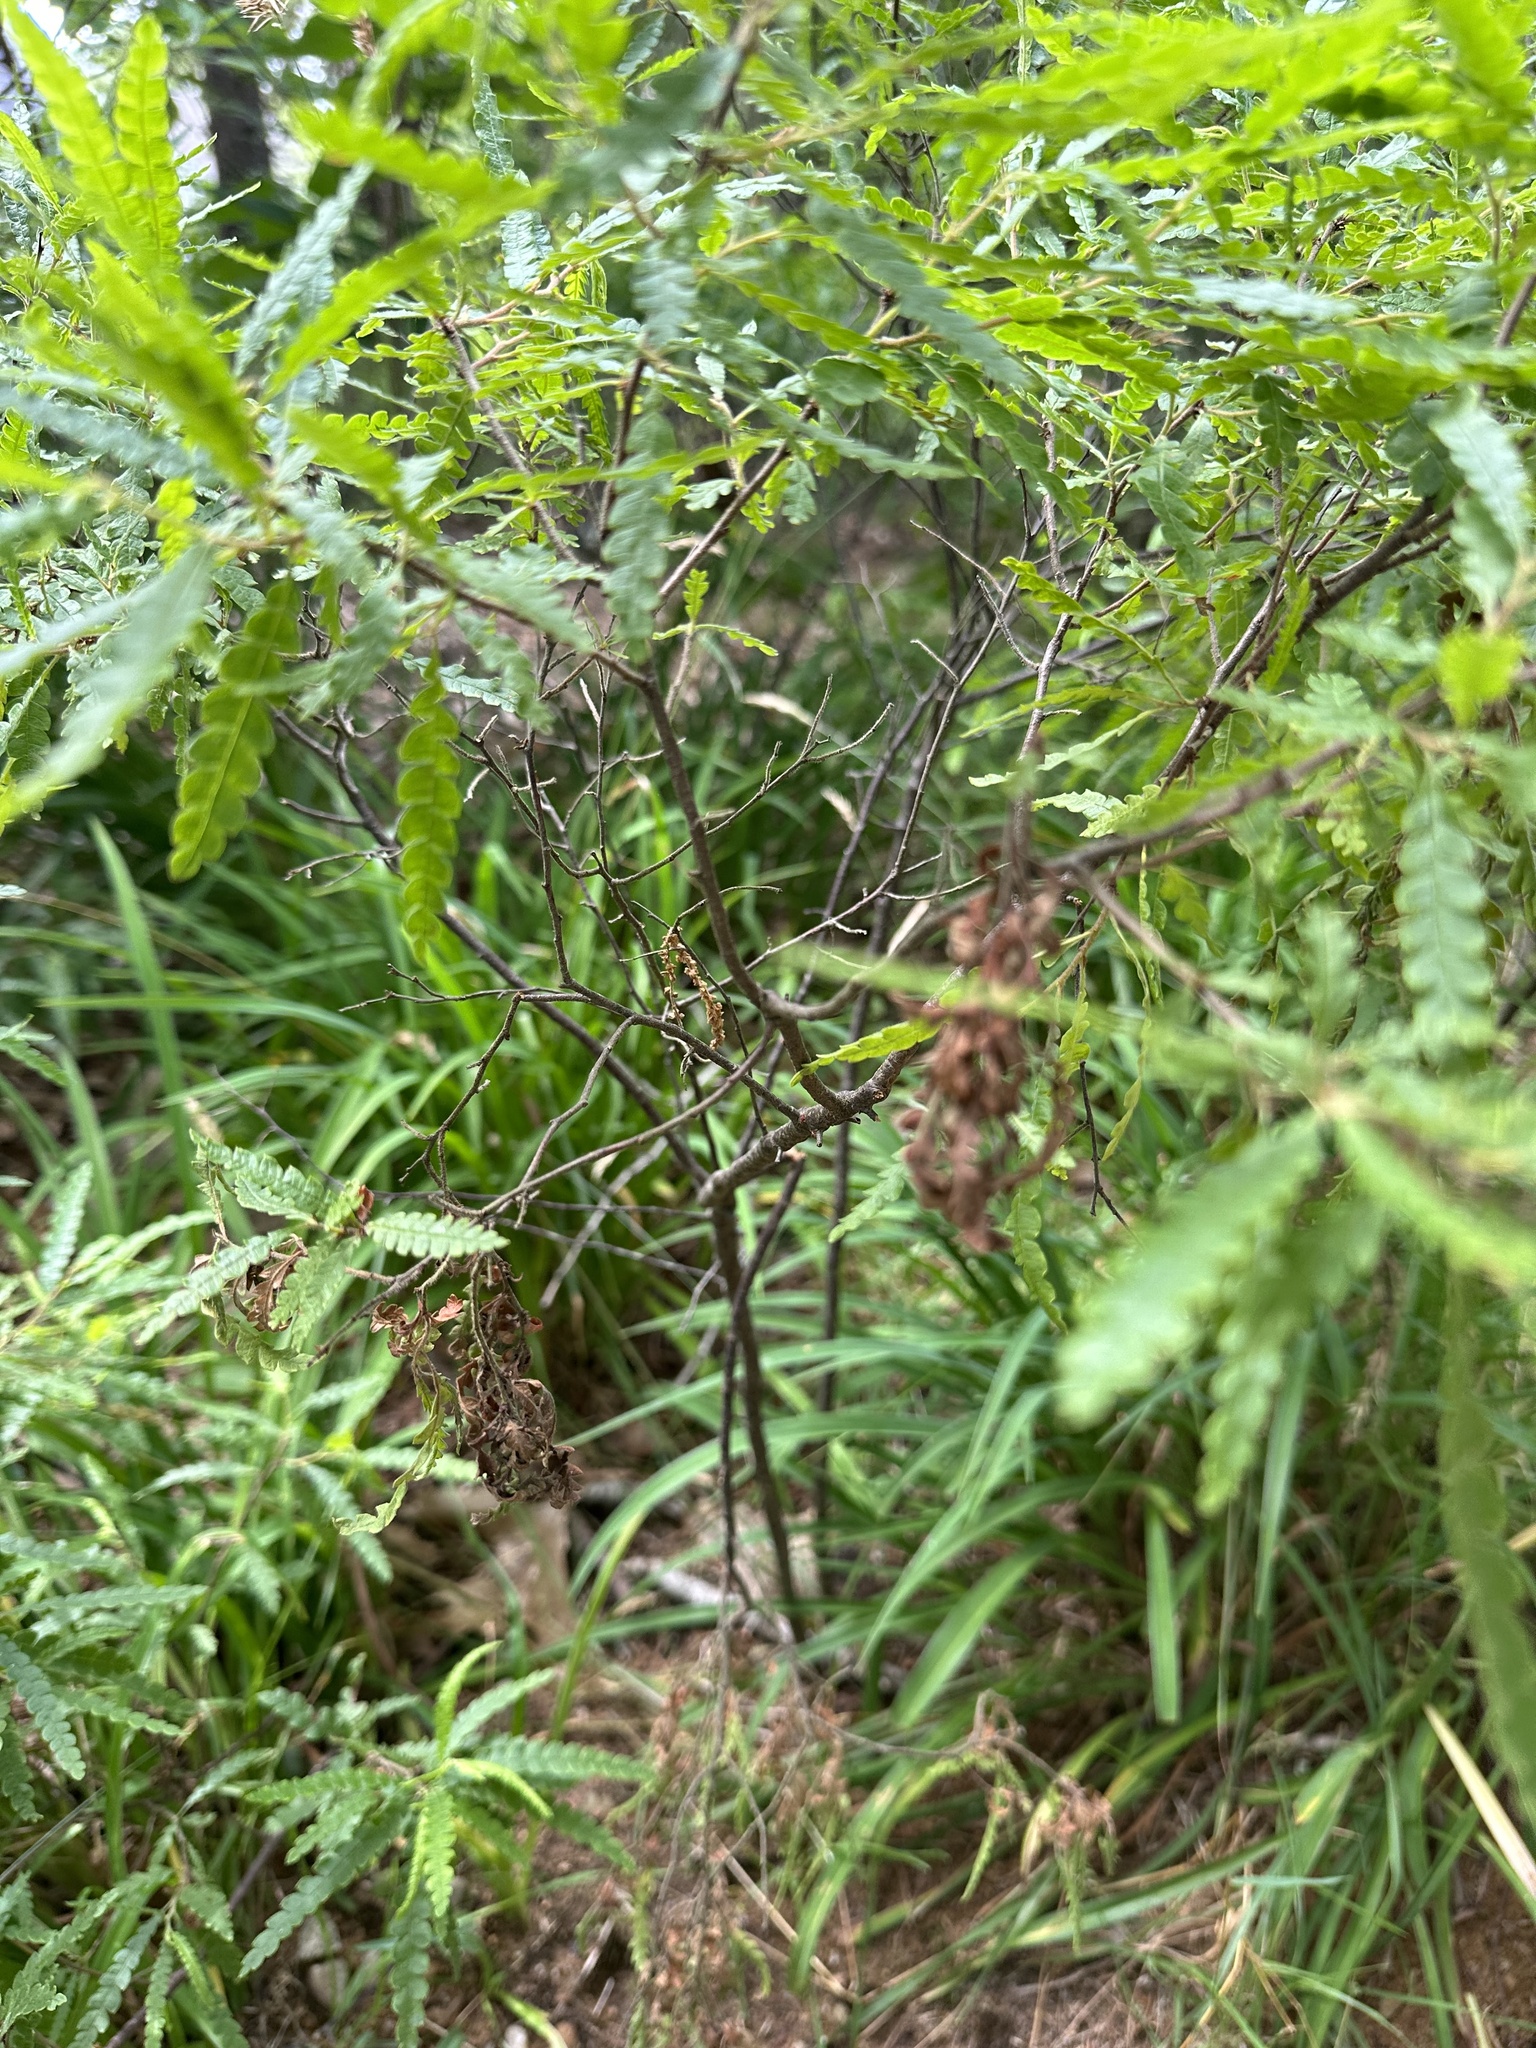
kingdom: Plantae
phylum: Tracheophyta
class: Magnoliopsida
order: Fagales
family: Myricaceae
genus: Comptonia
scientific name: Comptonia peregrina
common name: Sweet-fern
